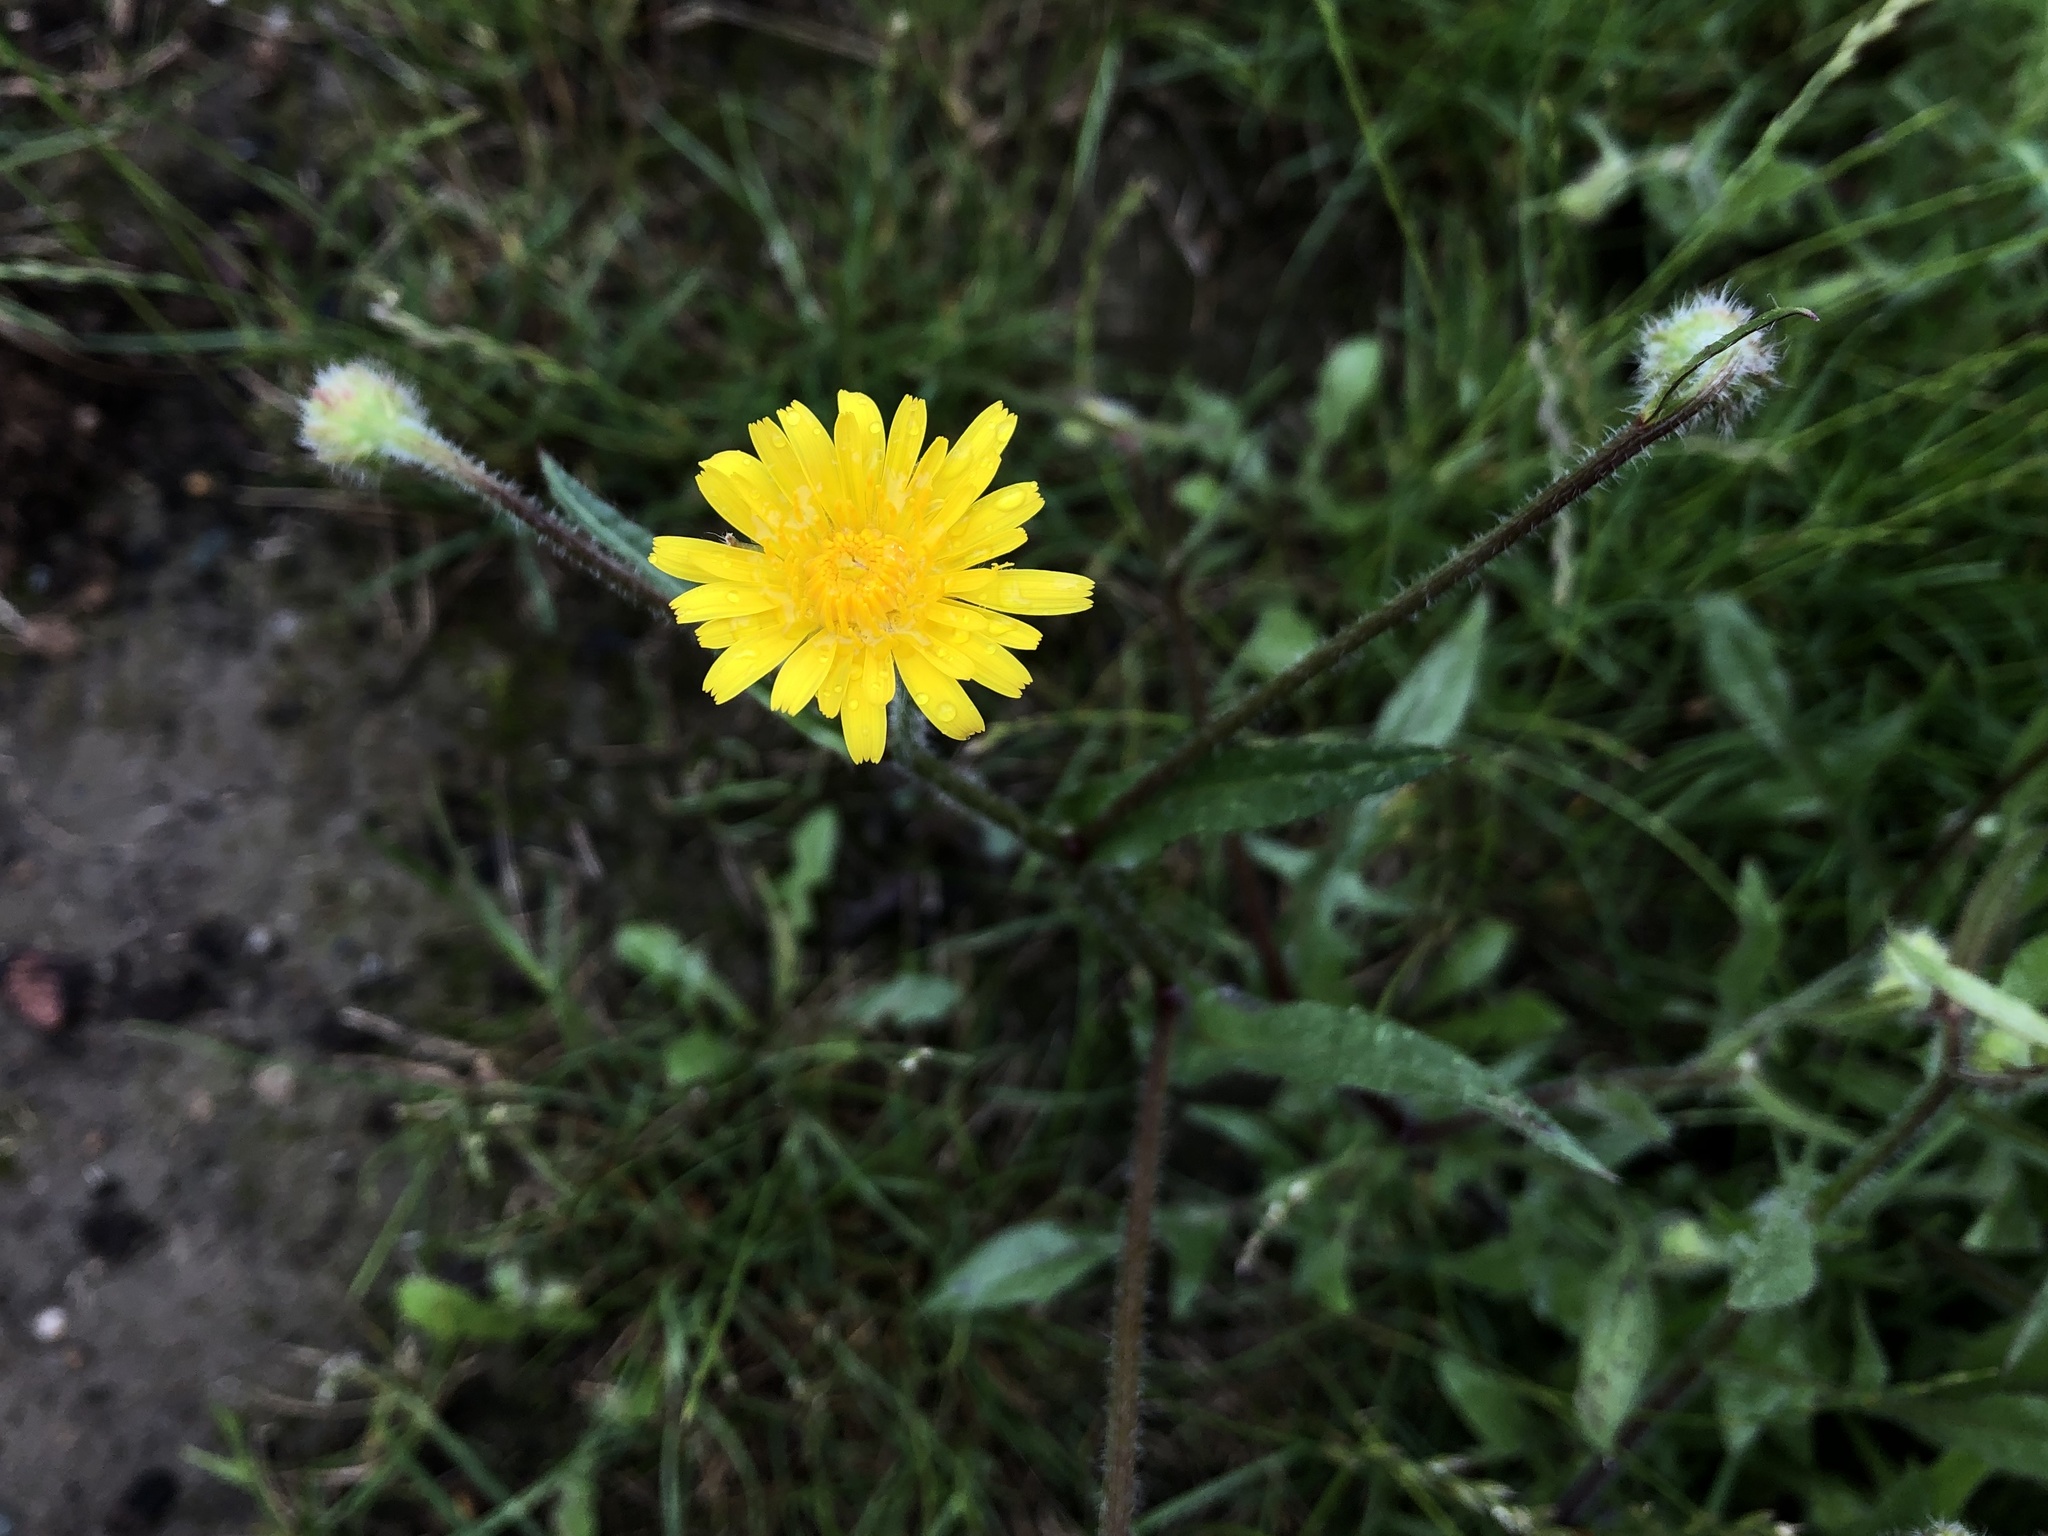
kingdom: Plantae
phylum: Tracheophyta
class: Magnoliopsida
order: Asterales
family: Asteraceae
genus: Crepis
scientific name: Crepis foetida
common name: Stinking hawk's-beard
